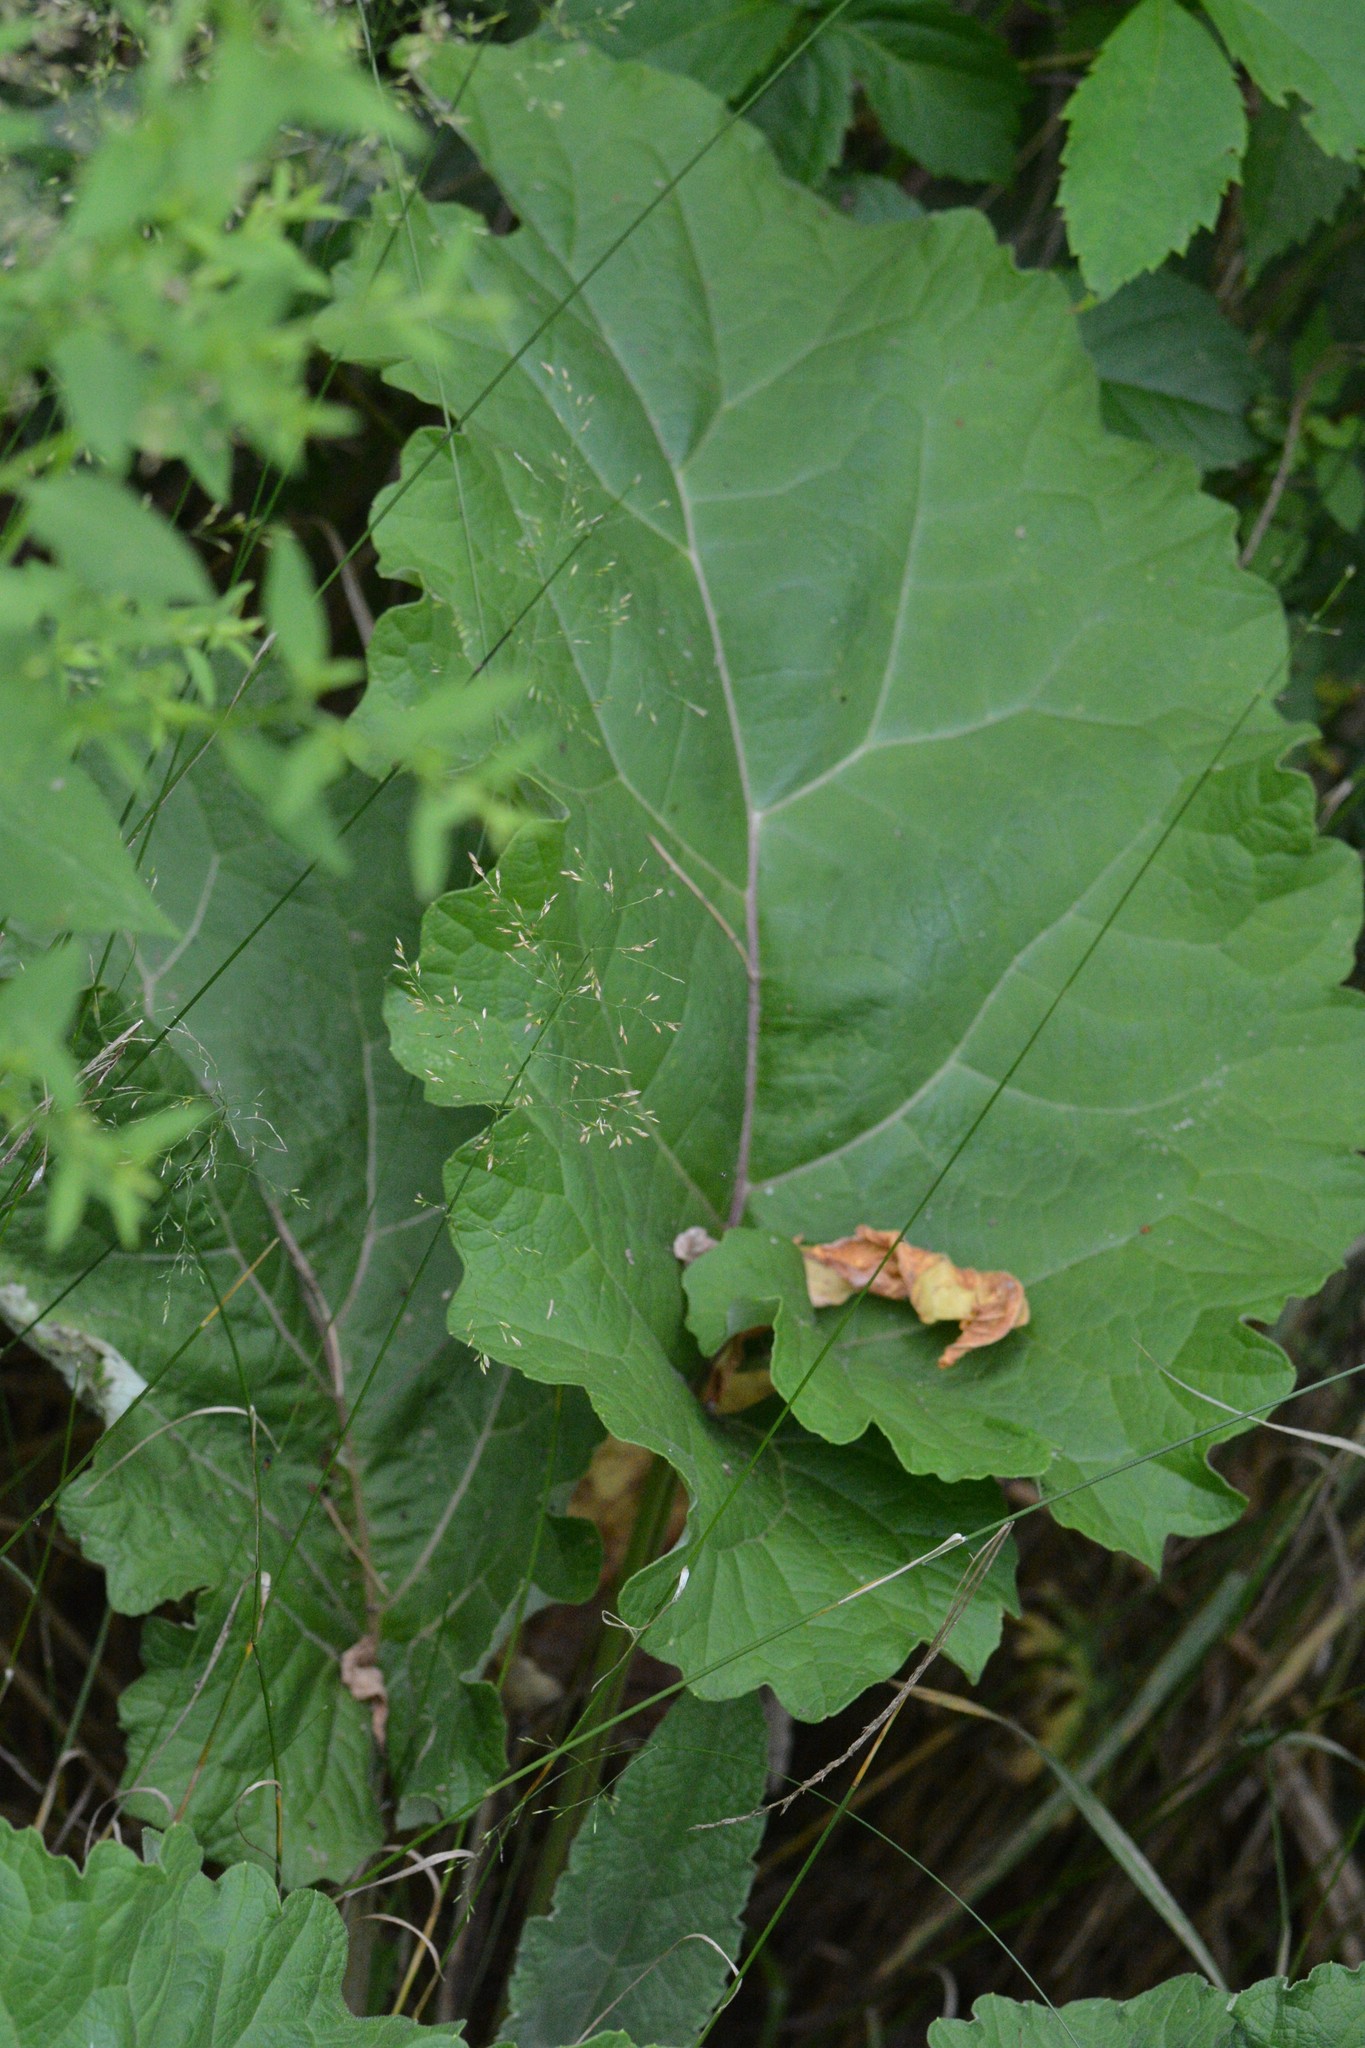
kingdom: Plantae
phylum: Tracheophyta
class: Magnoliopsida
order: Asterales
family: Asteraceae
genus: Arctium
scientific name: Arctium
